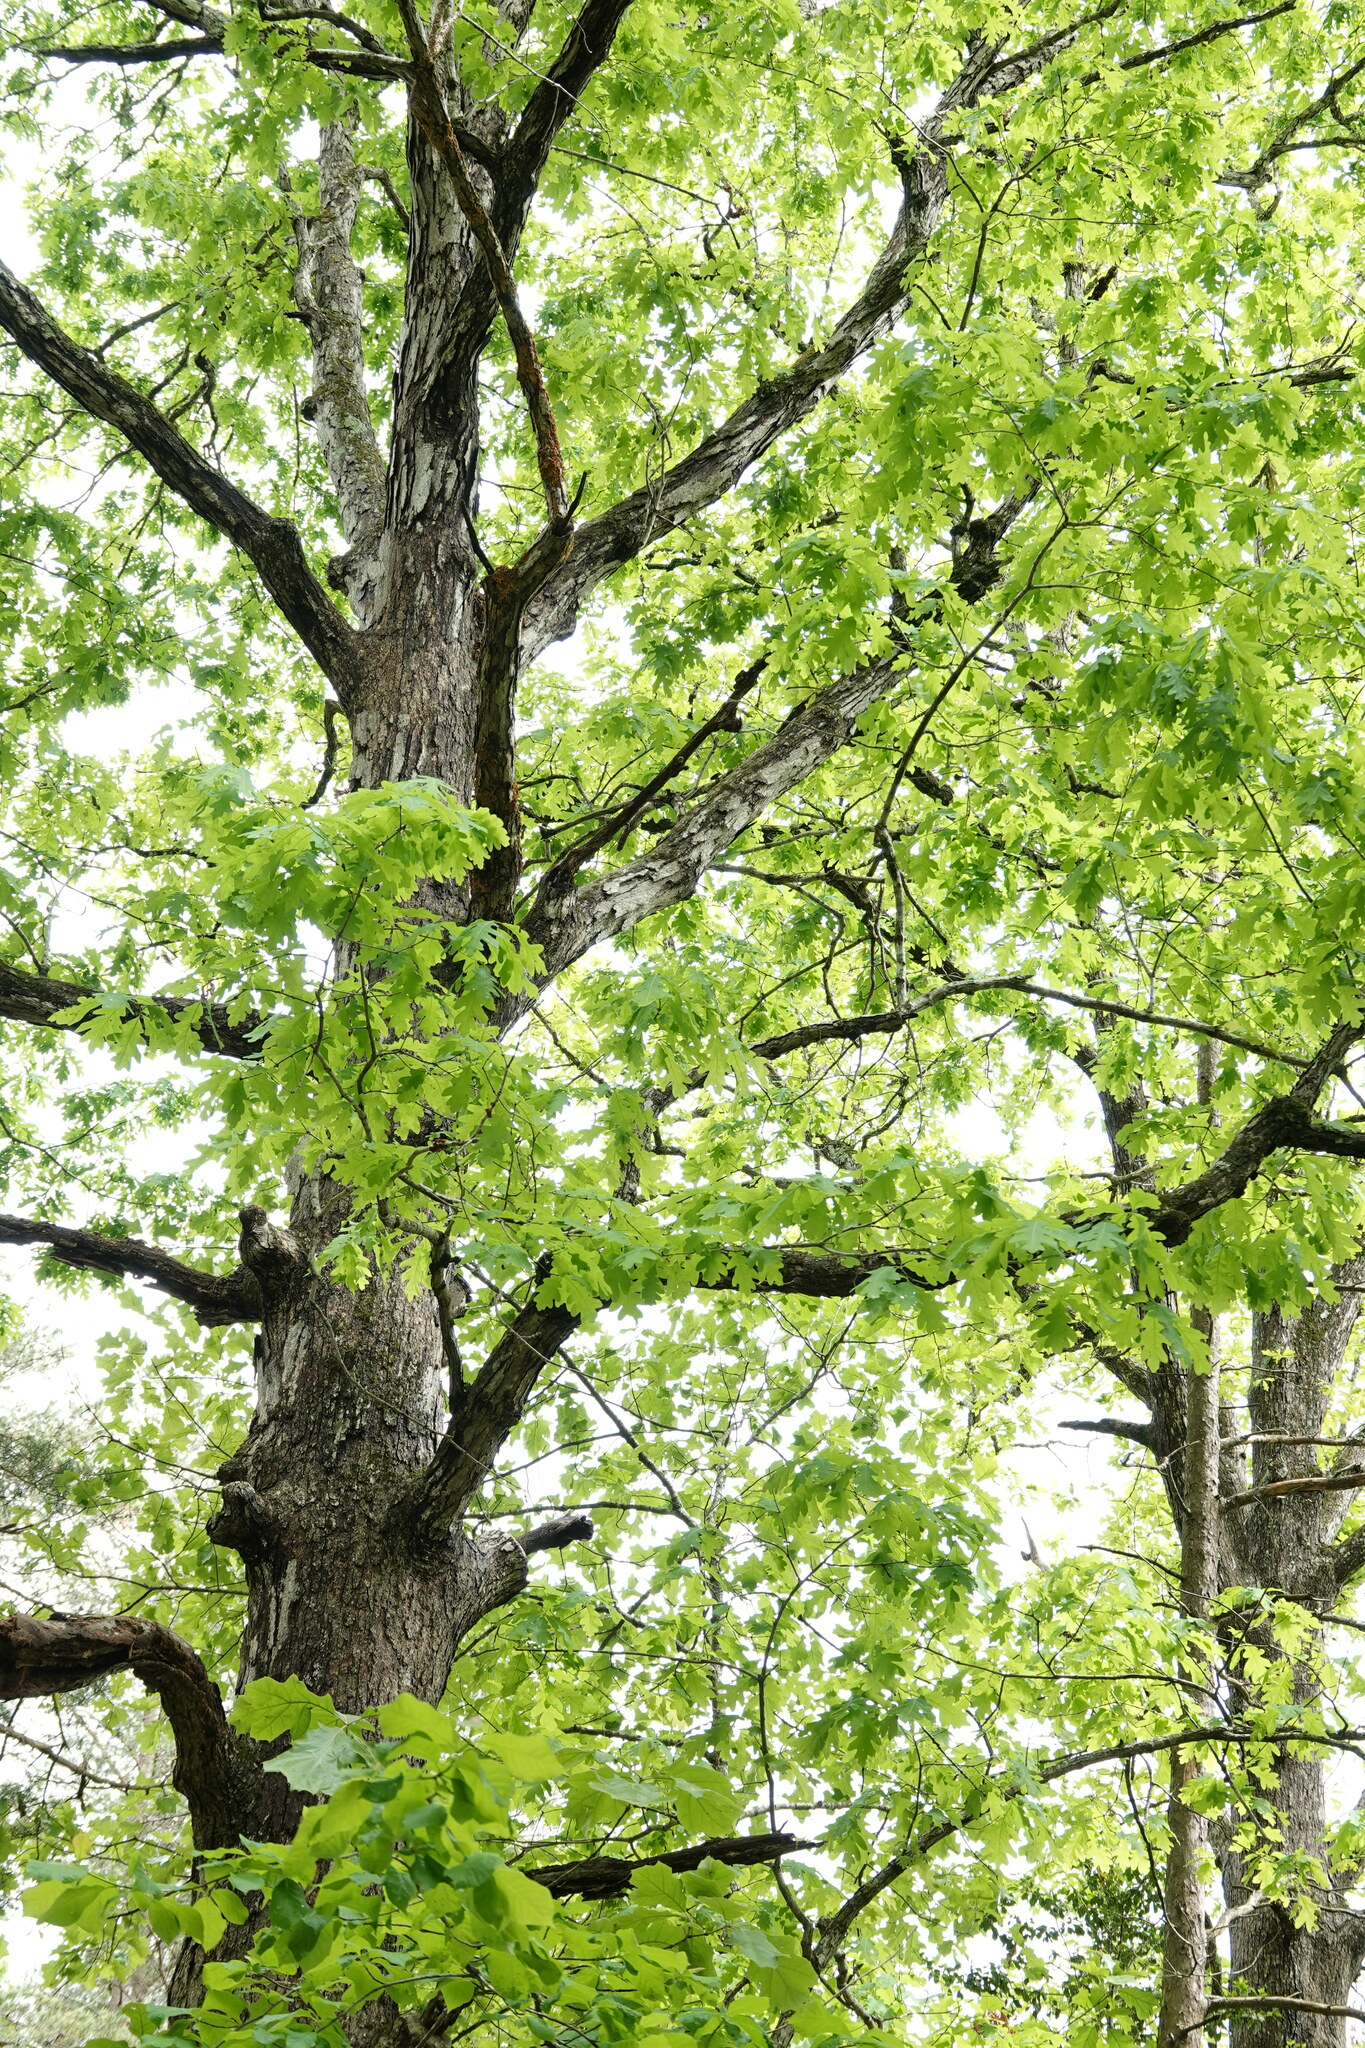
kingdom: Plantae
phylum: Tracheophyta
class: Magnoliopsida
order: Fagales
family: Fagaceae
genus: Quercus
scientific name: Quercus alba
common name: White oak
